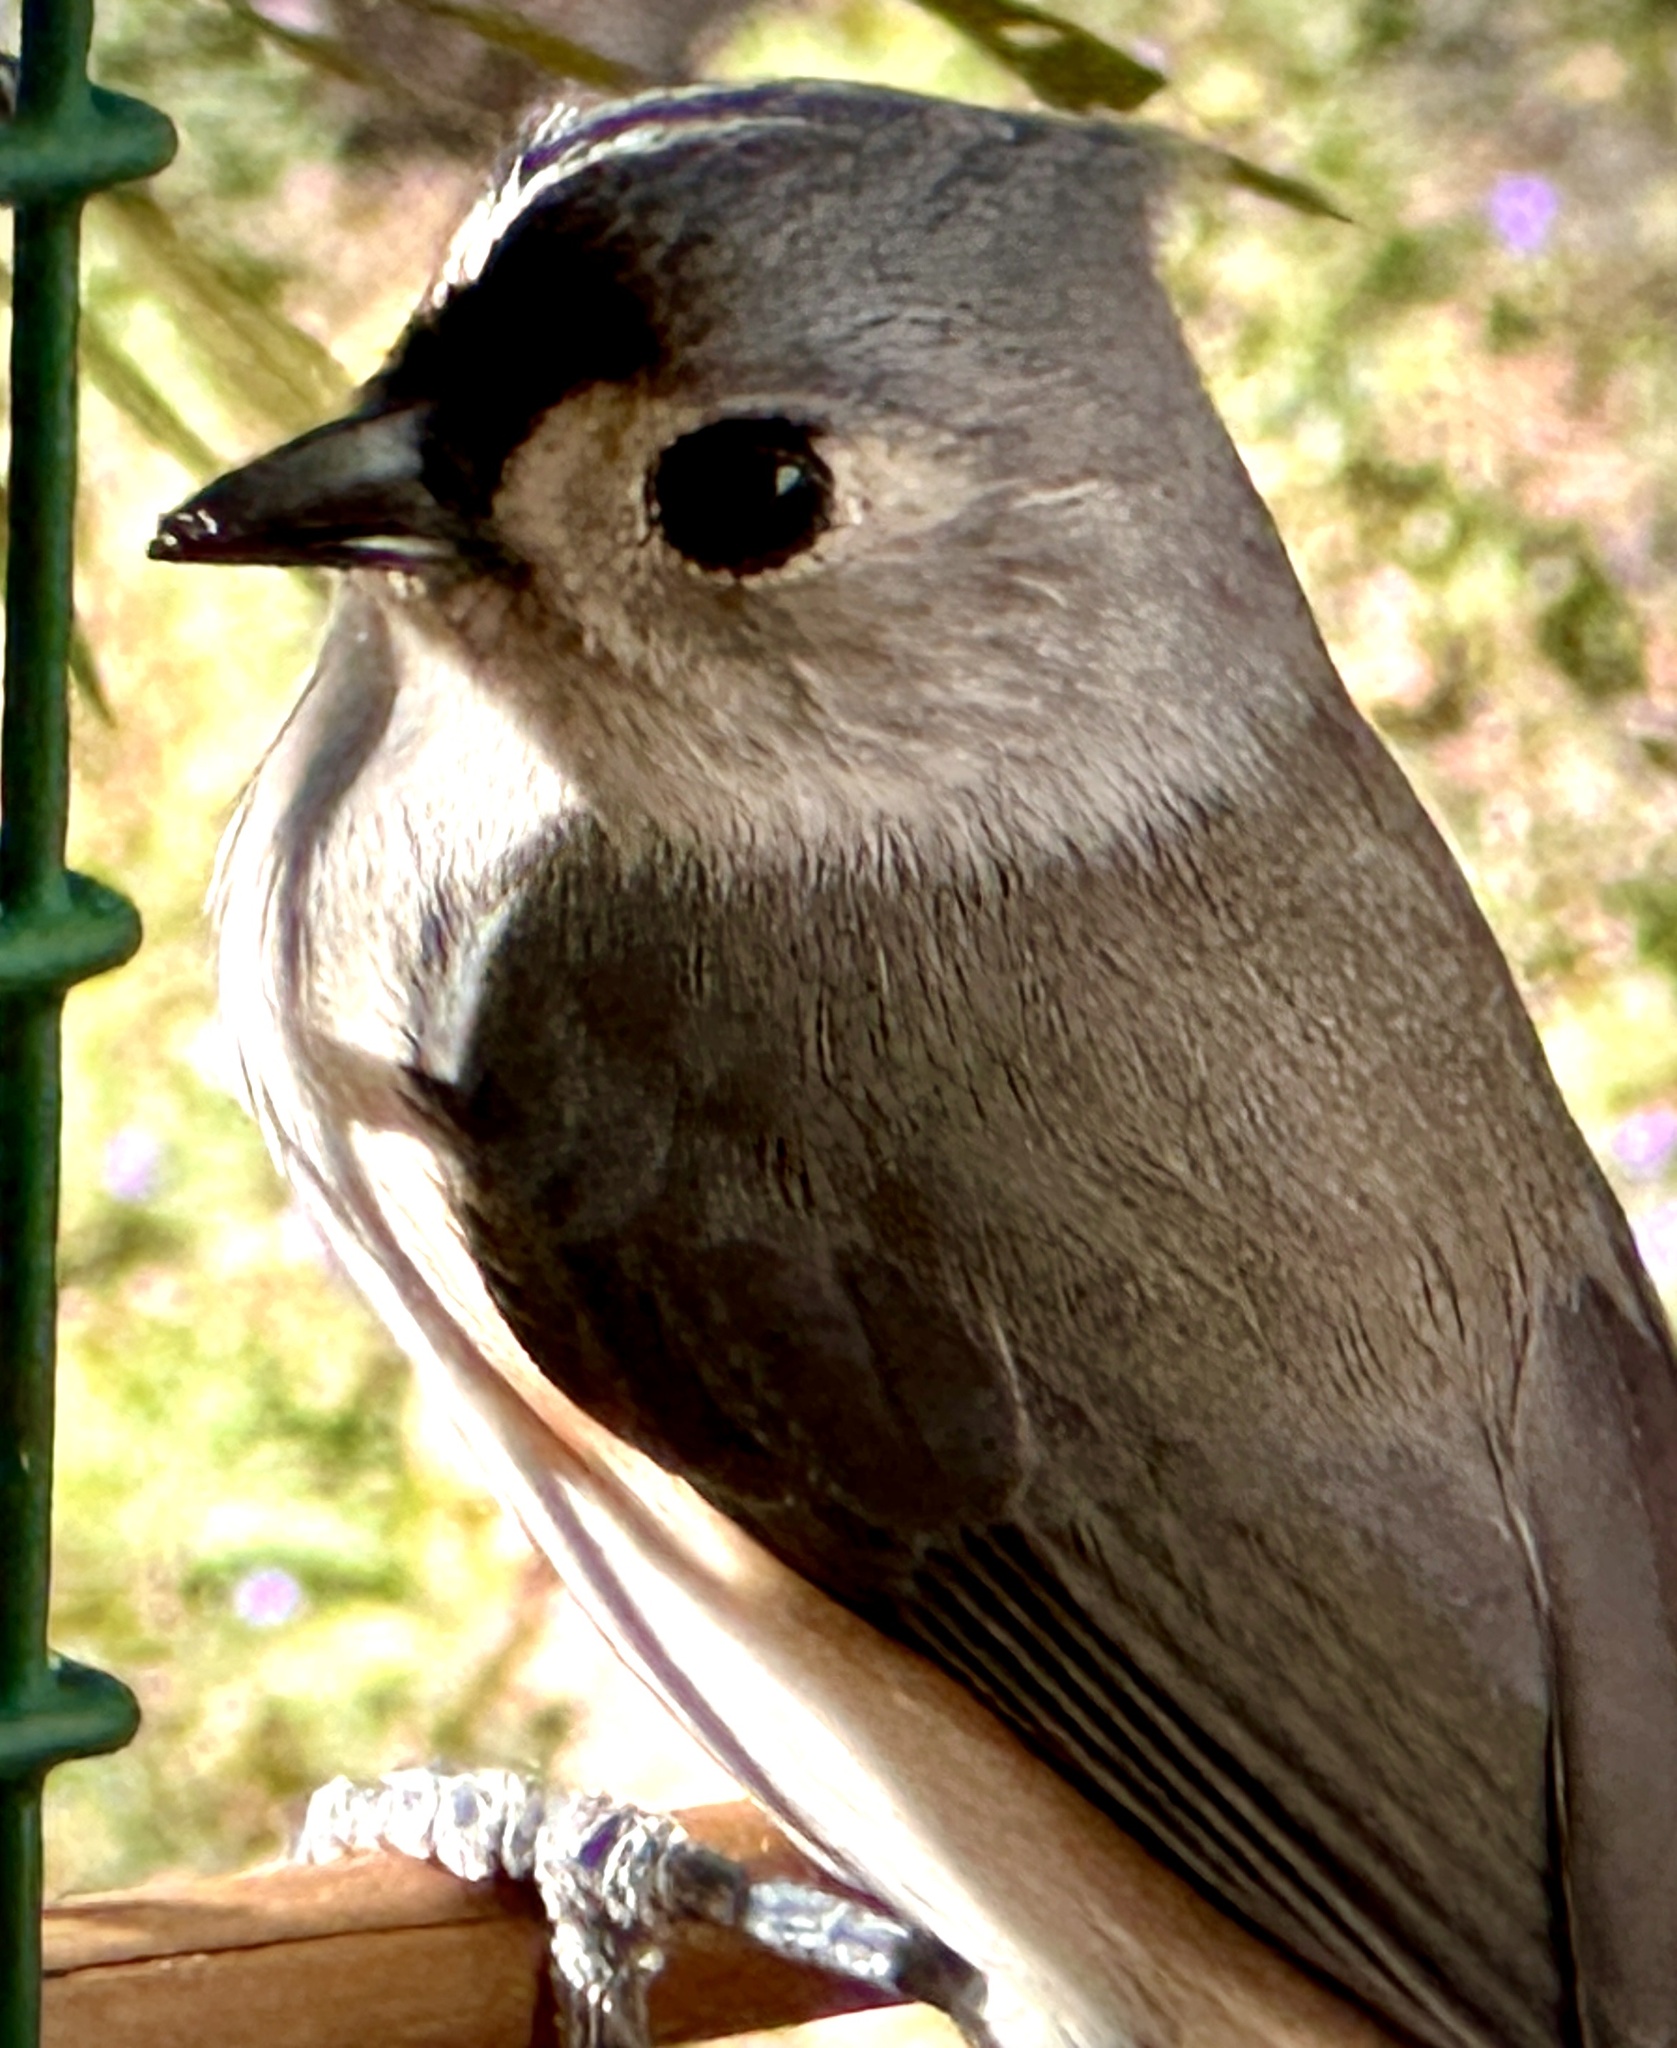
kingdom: Animalia
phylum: Chordata
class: Aves
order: Passeriformes
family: Paridae
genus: Baeolophus
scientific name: Baeolophus bicolor
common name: Tufted titmouse
